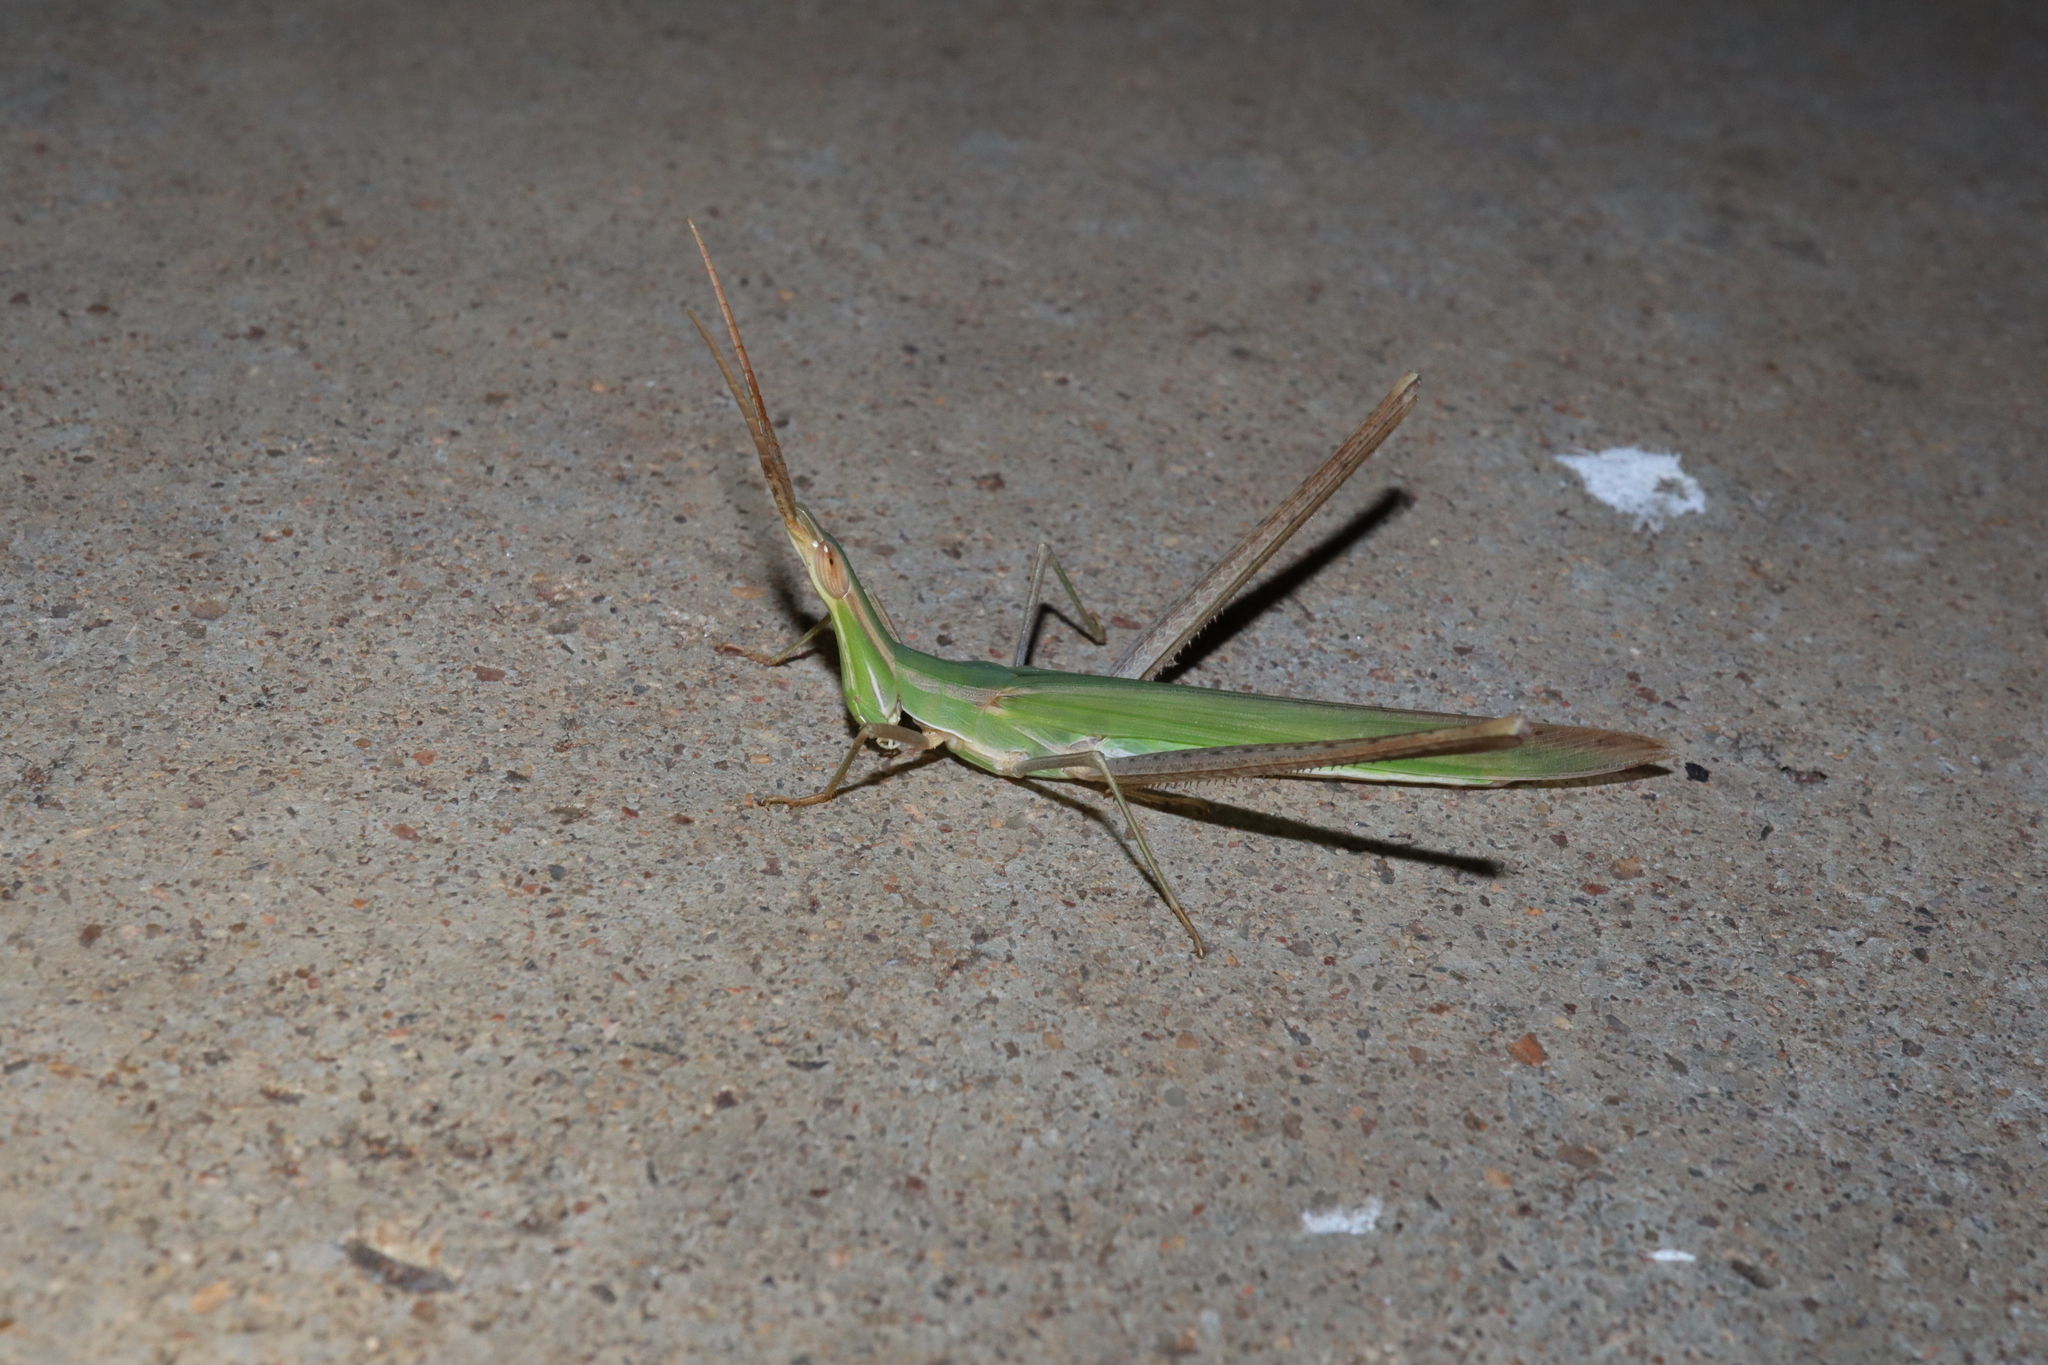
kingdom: Animalia
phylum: Arthropoda
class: Insecta
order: Orthoptera
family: Acrididae
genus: Acrida
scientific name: Acrida conica
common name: Giant green slantface
